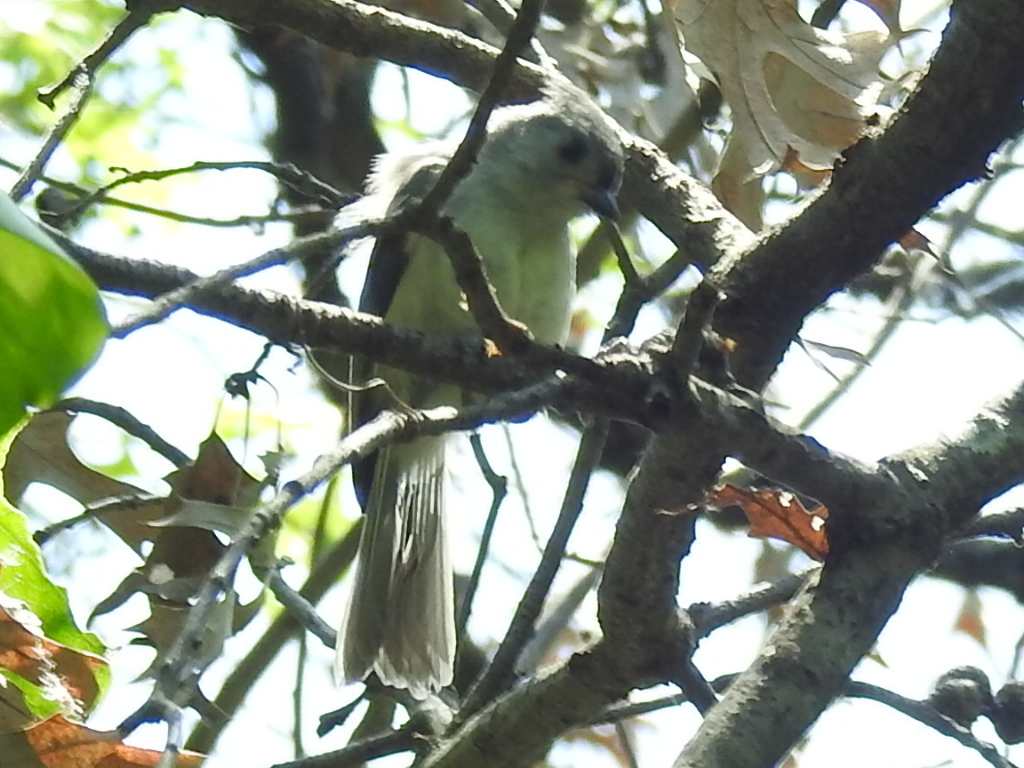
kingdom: Animalia
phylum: Chordata
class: Aves
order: Passeriformes
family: Paridae
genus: Baeolophus
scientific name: Baeolophus bicolor
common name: Tufted titmouse
